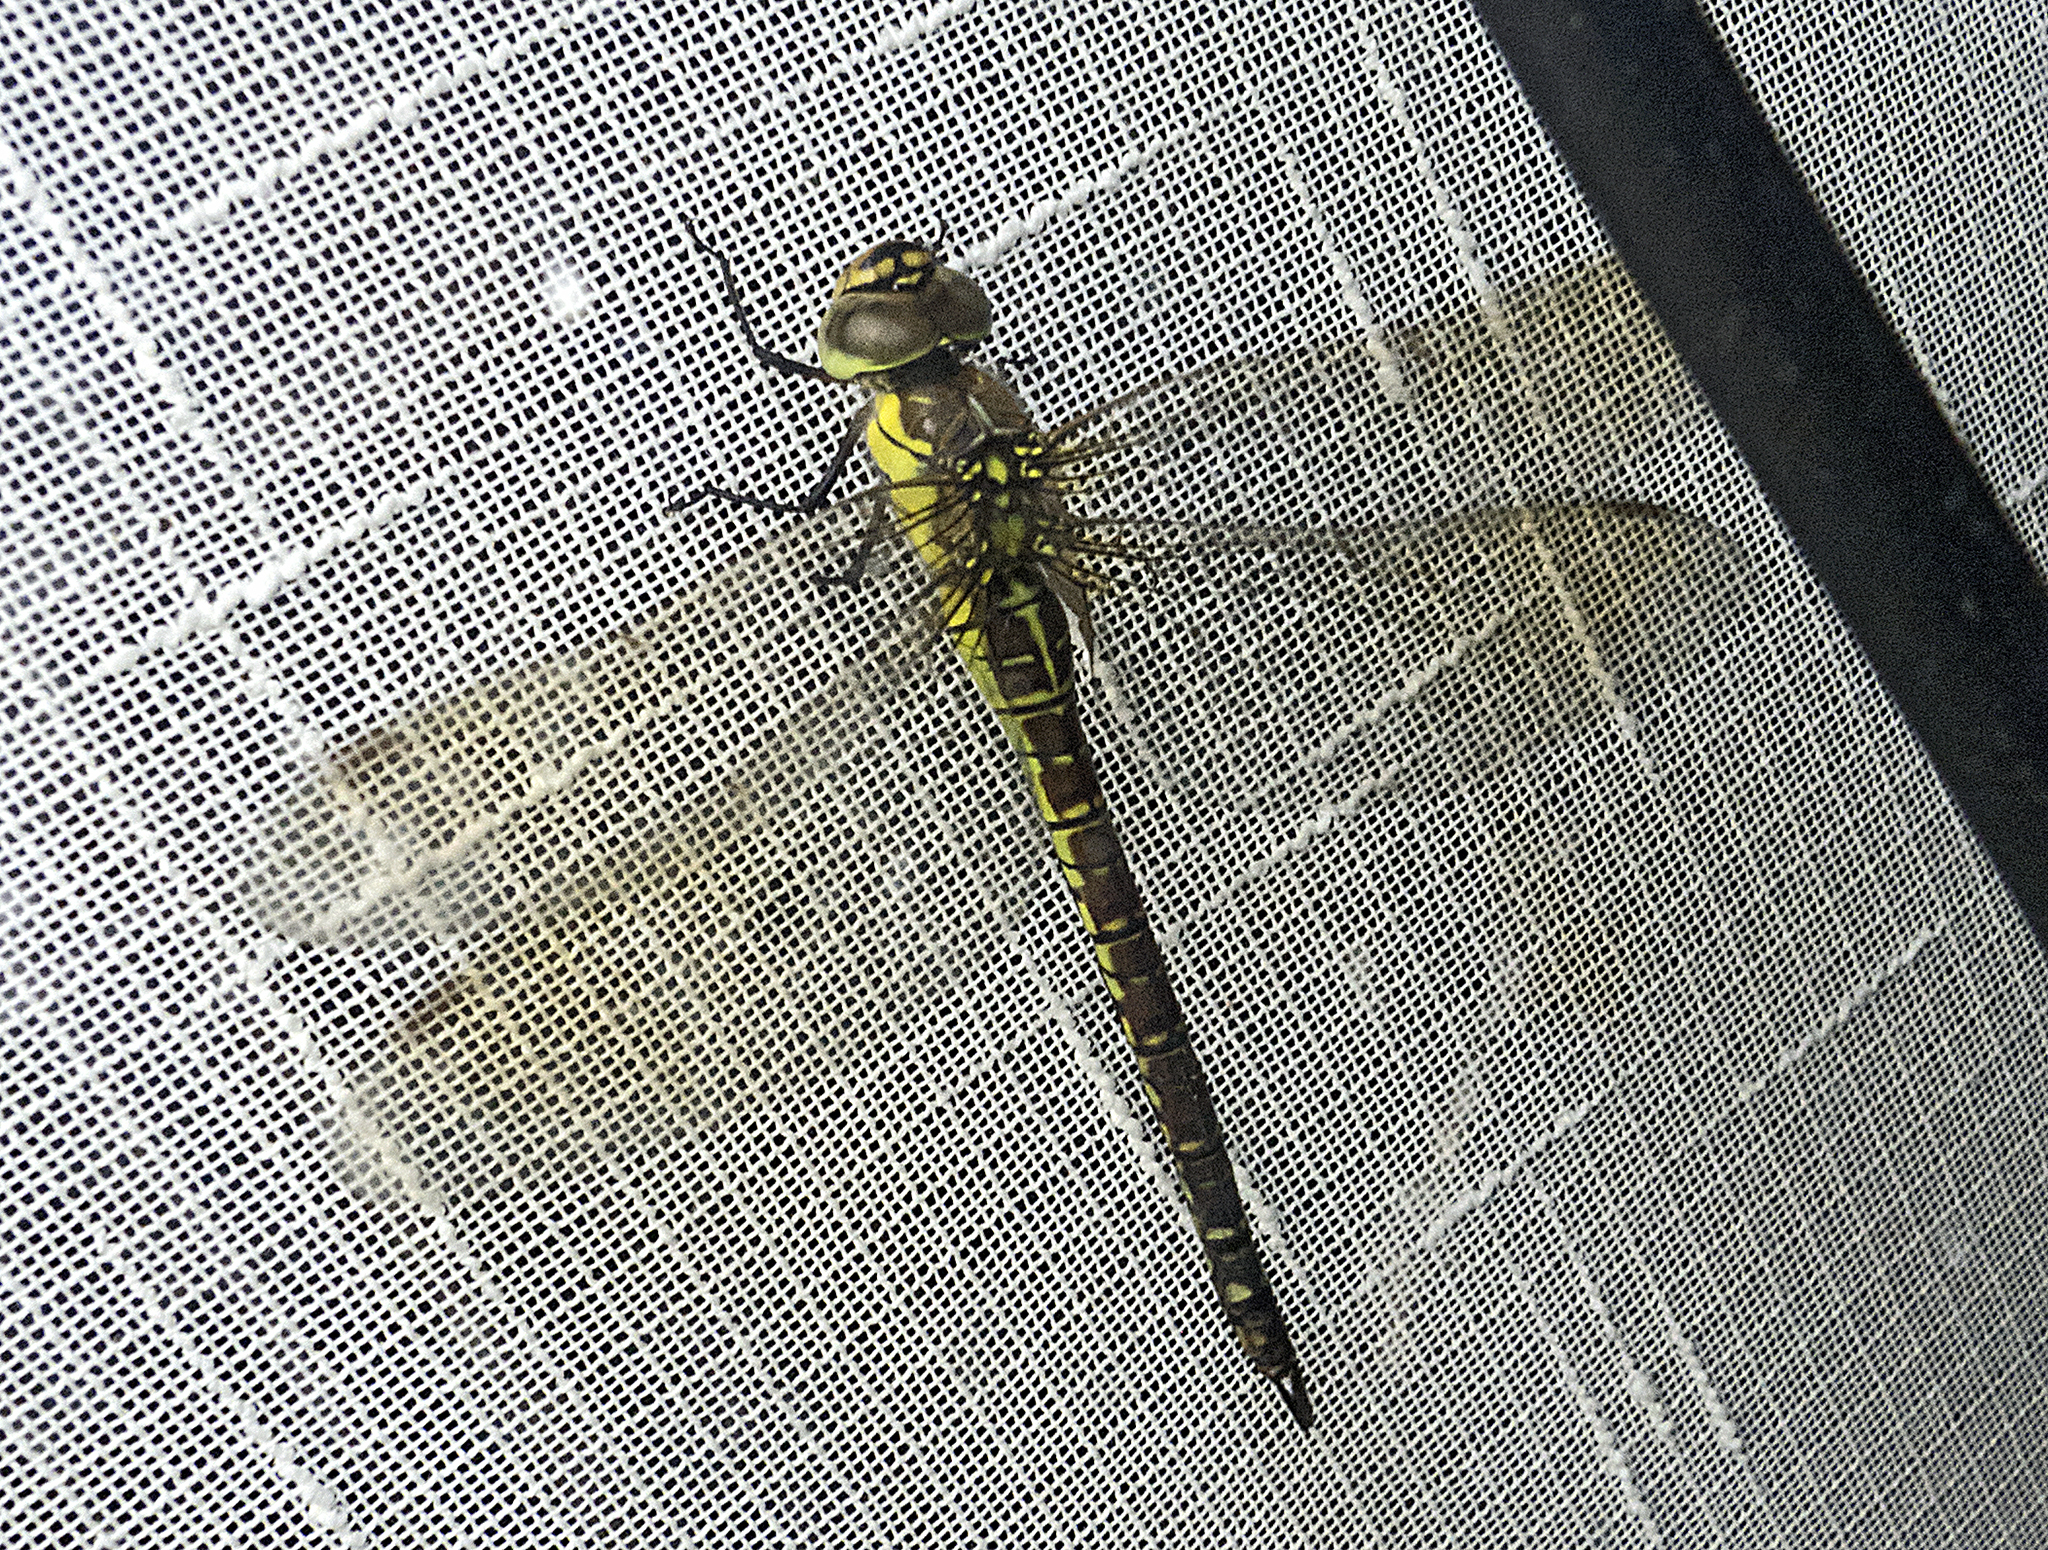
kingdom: Animalia
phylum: Arthropoda
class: Insecta
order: Odonata
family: Aeshnidae
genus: Aeshna
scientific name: Aeshna affinis
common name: Southern migrant hawker
